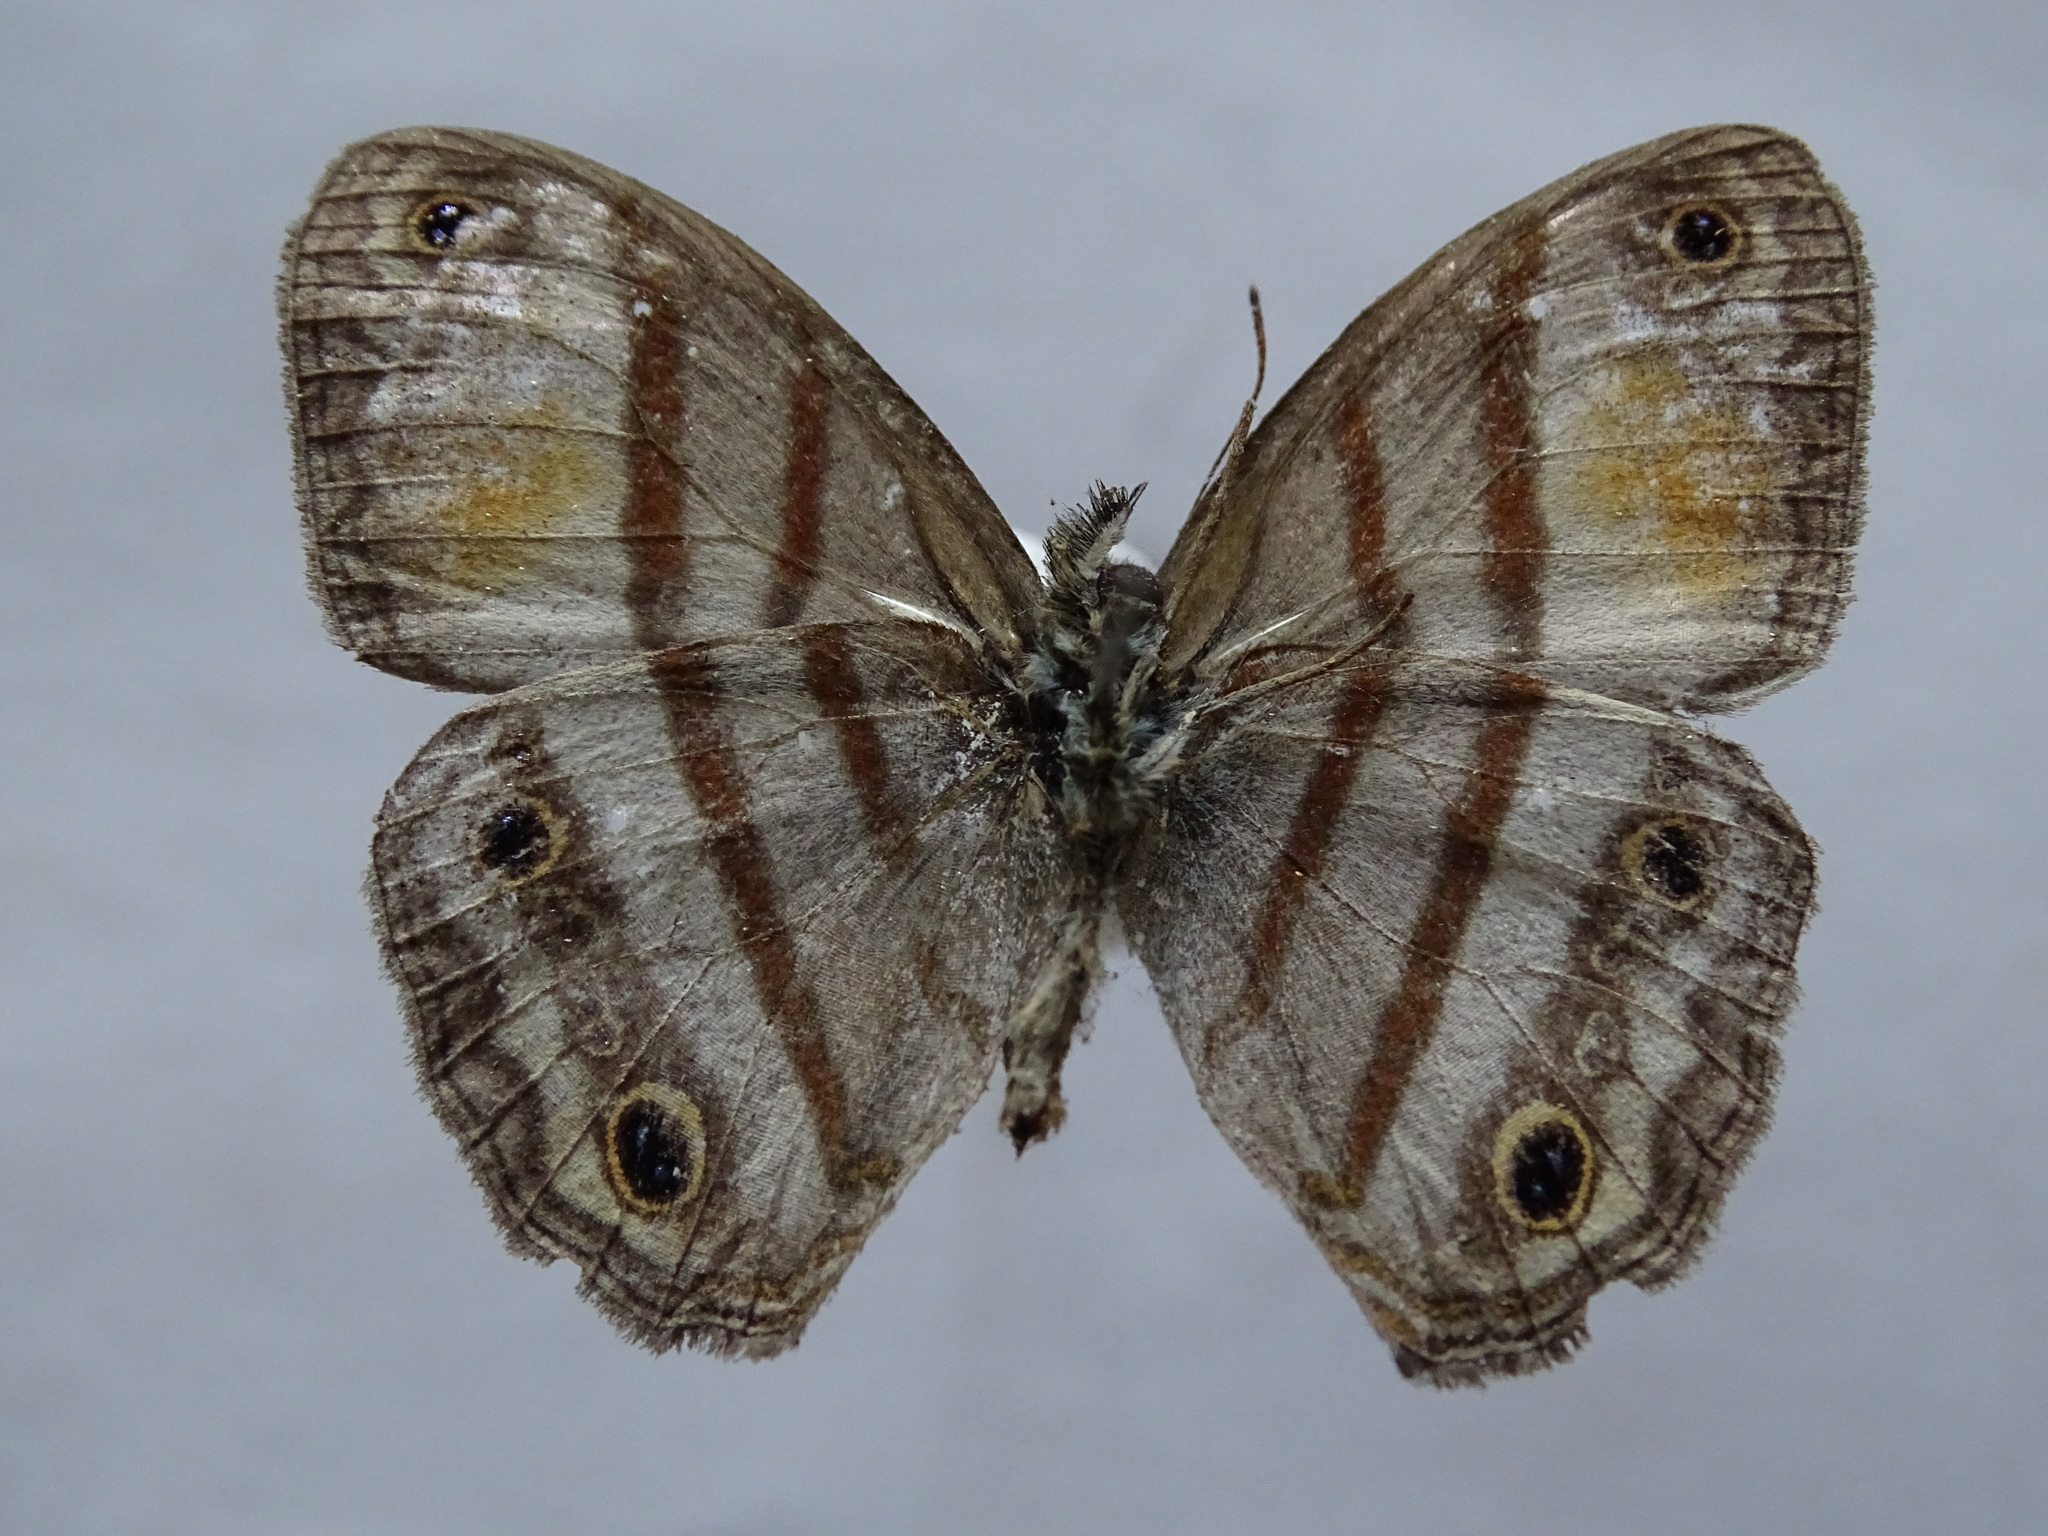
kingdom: Animalia
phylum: Arthropoda
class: Insecta
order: Lepidoptera
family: Nymphalidae
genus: Paryphthimoides
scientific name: Paryphthimoides
